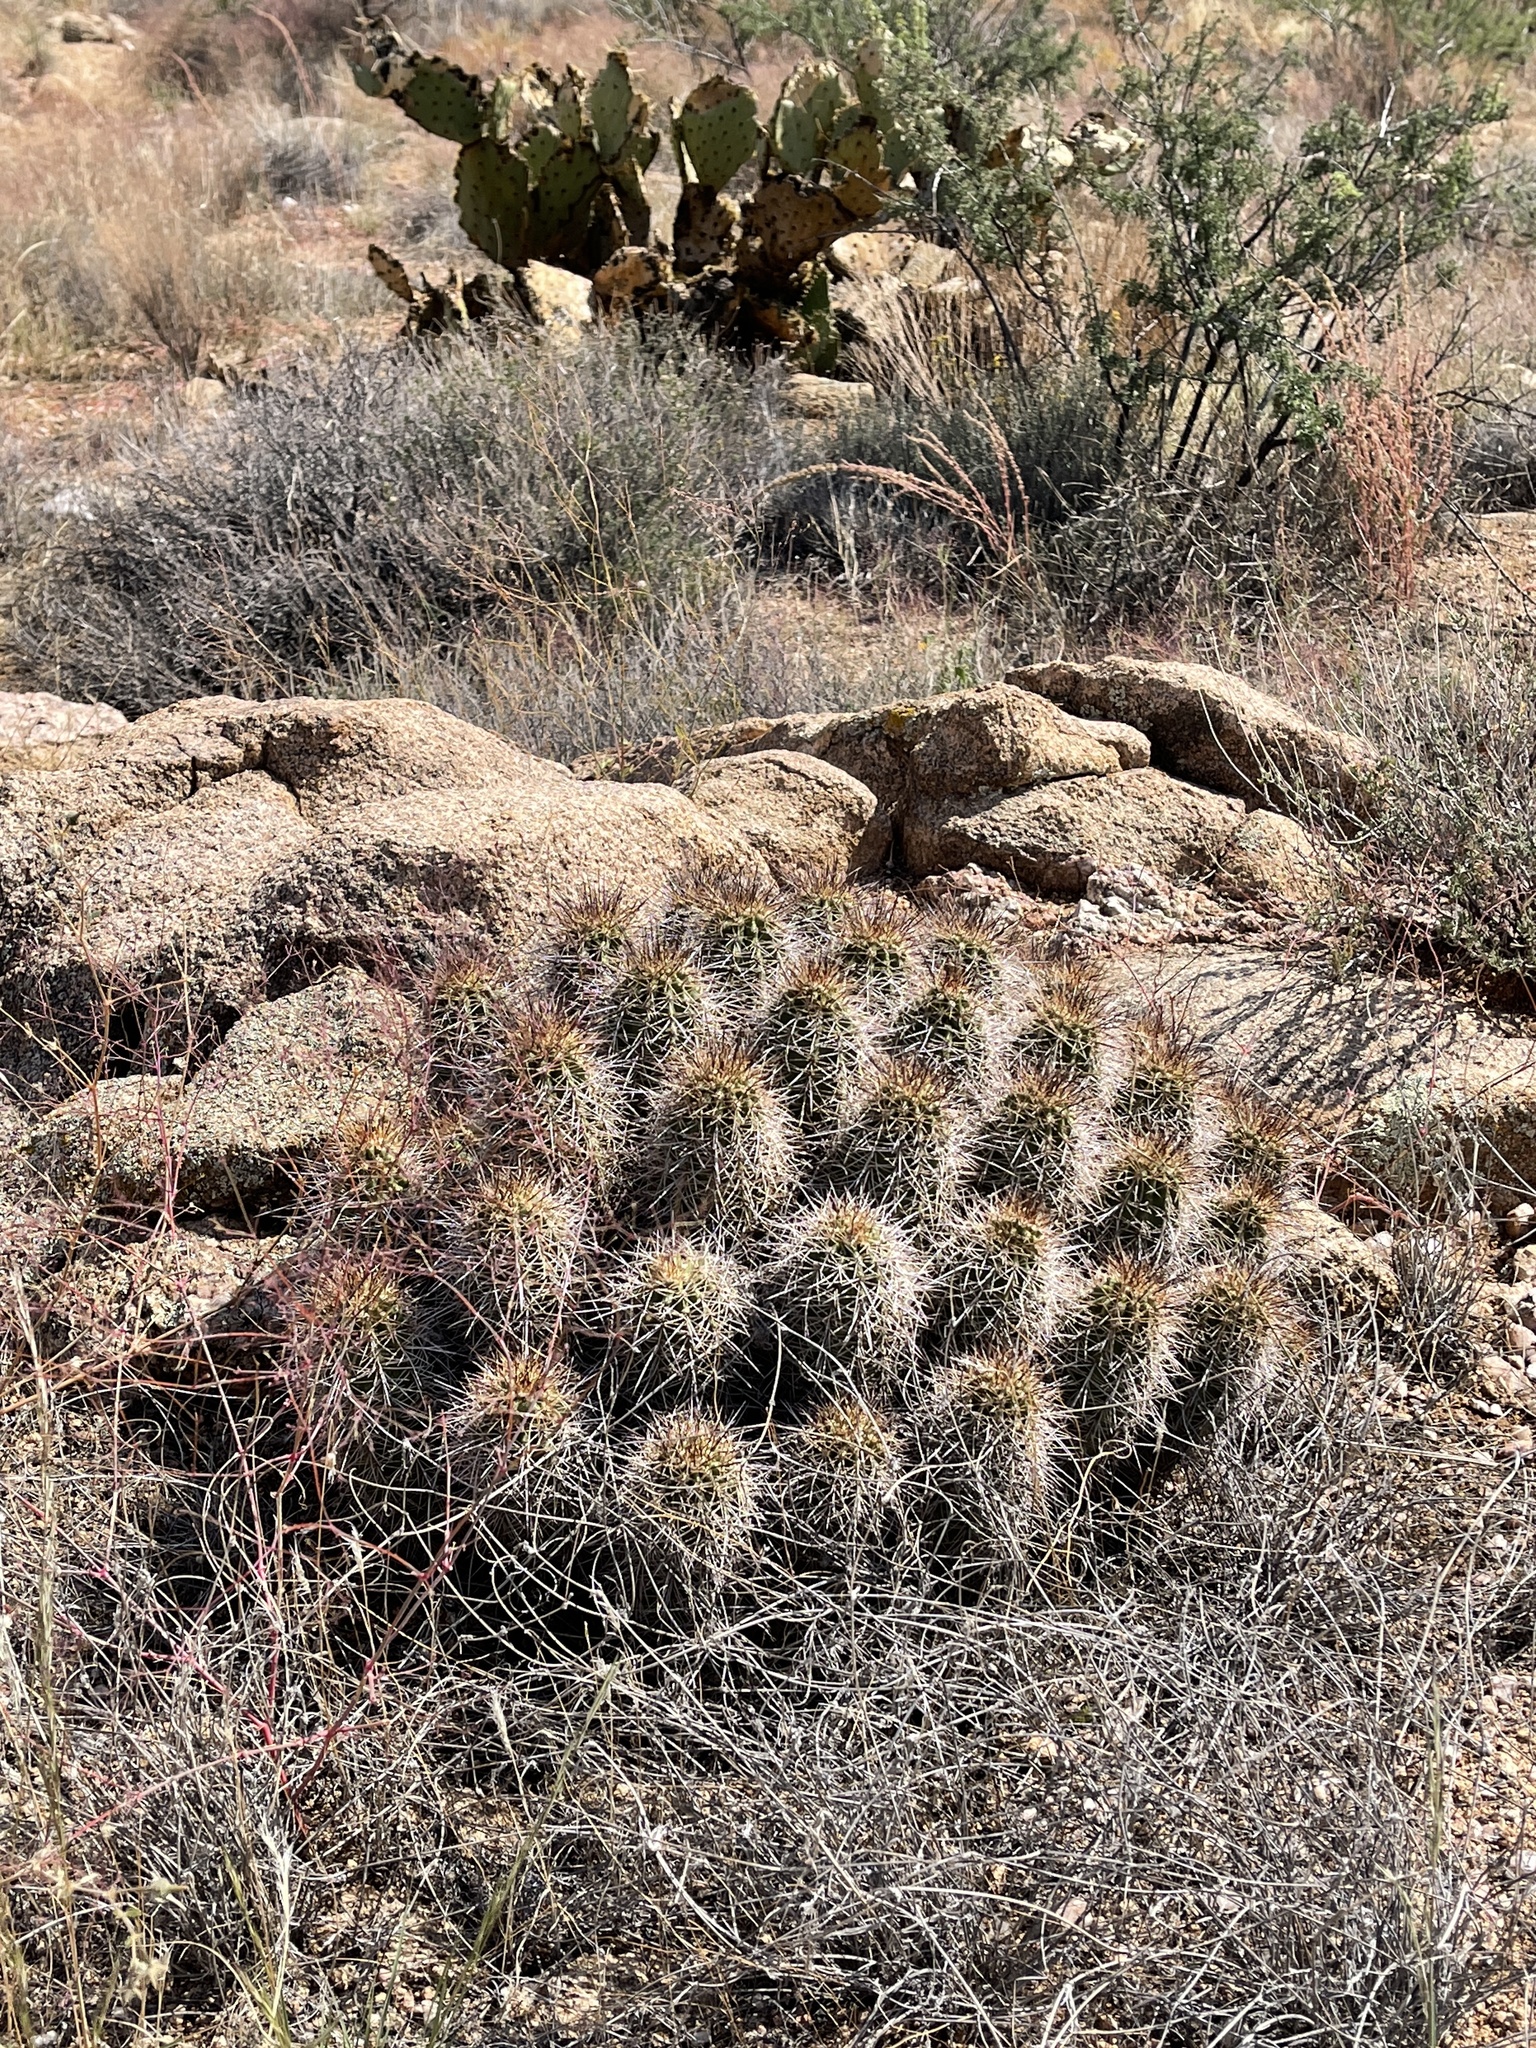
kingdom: Plantae
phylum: Tracheophyta
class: Magnoliopsida
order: Caryophyllales
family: Cactaceae
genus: Echinocereus
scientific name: Echinocereus bakeri
